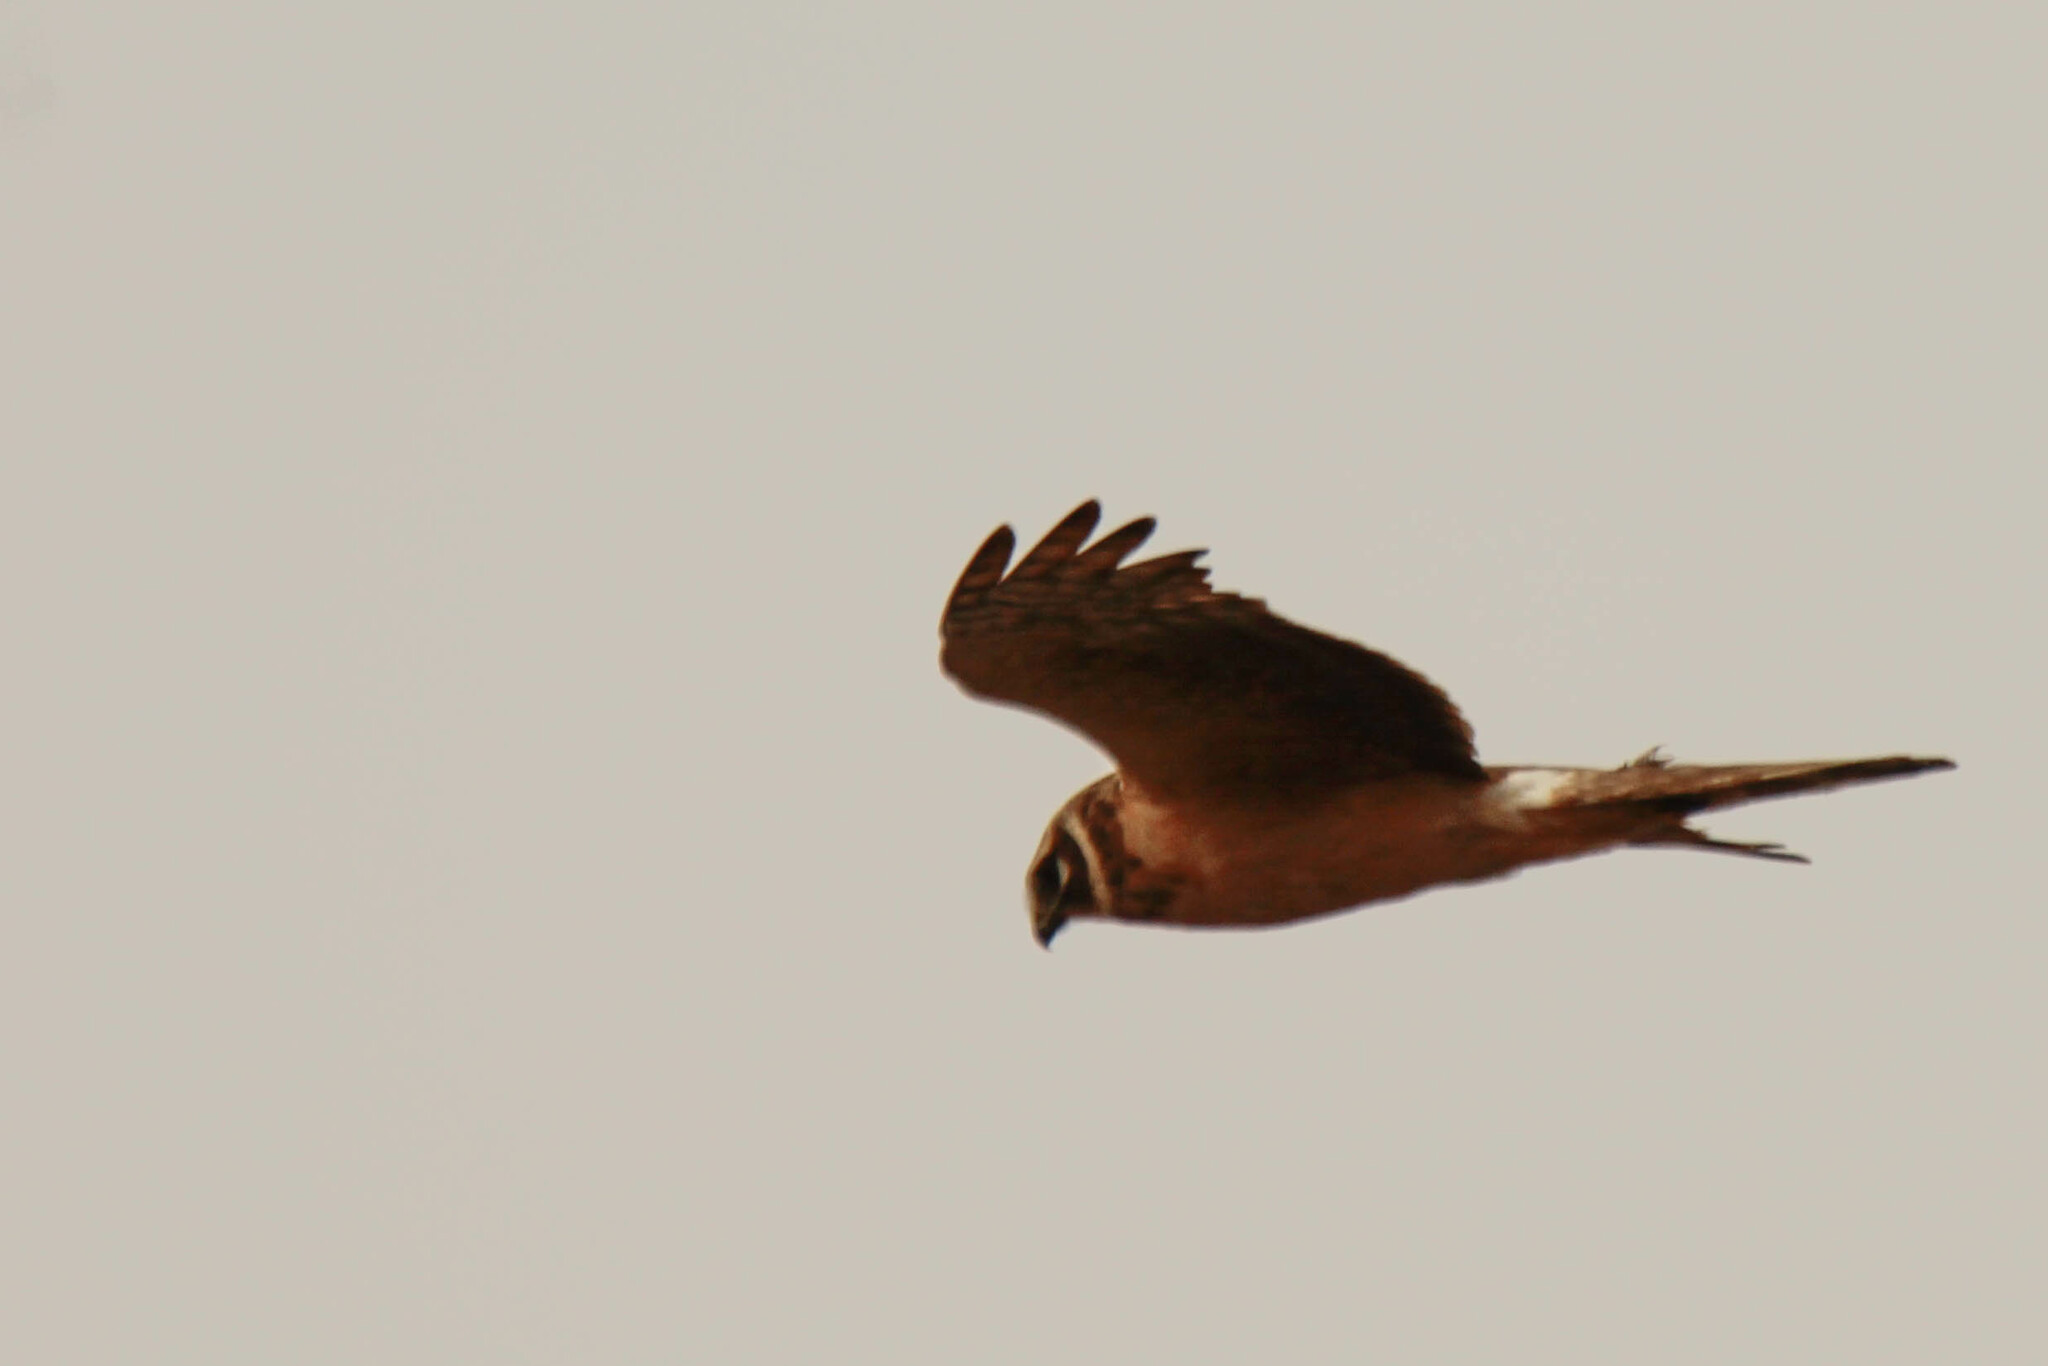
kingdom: Animalia
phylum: Chordata
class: Aves
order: Accipitriformes
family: Accipitridae
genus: Circus
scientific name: Circus macrourus
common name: Pallid harrier
